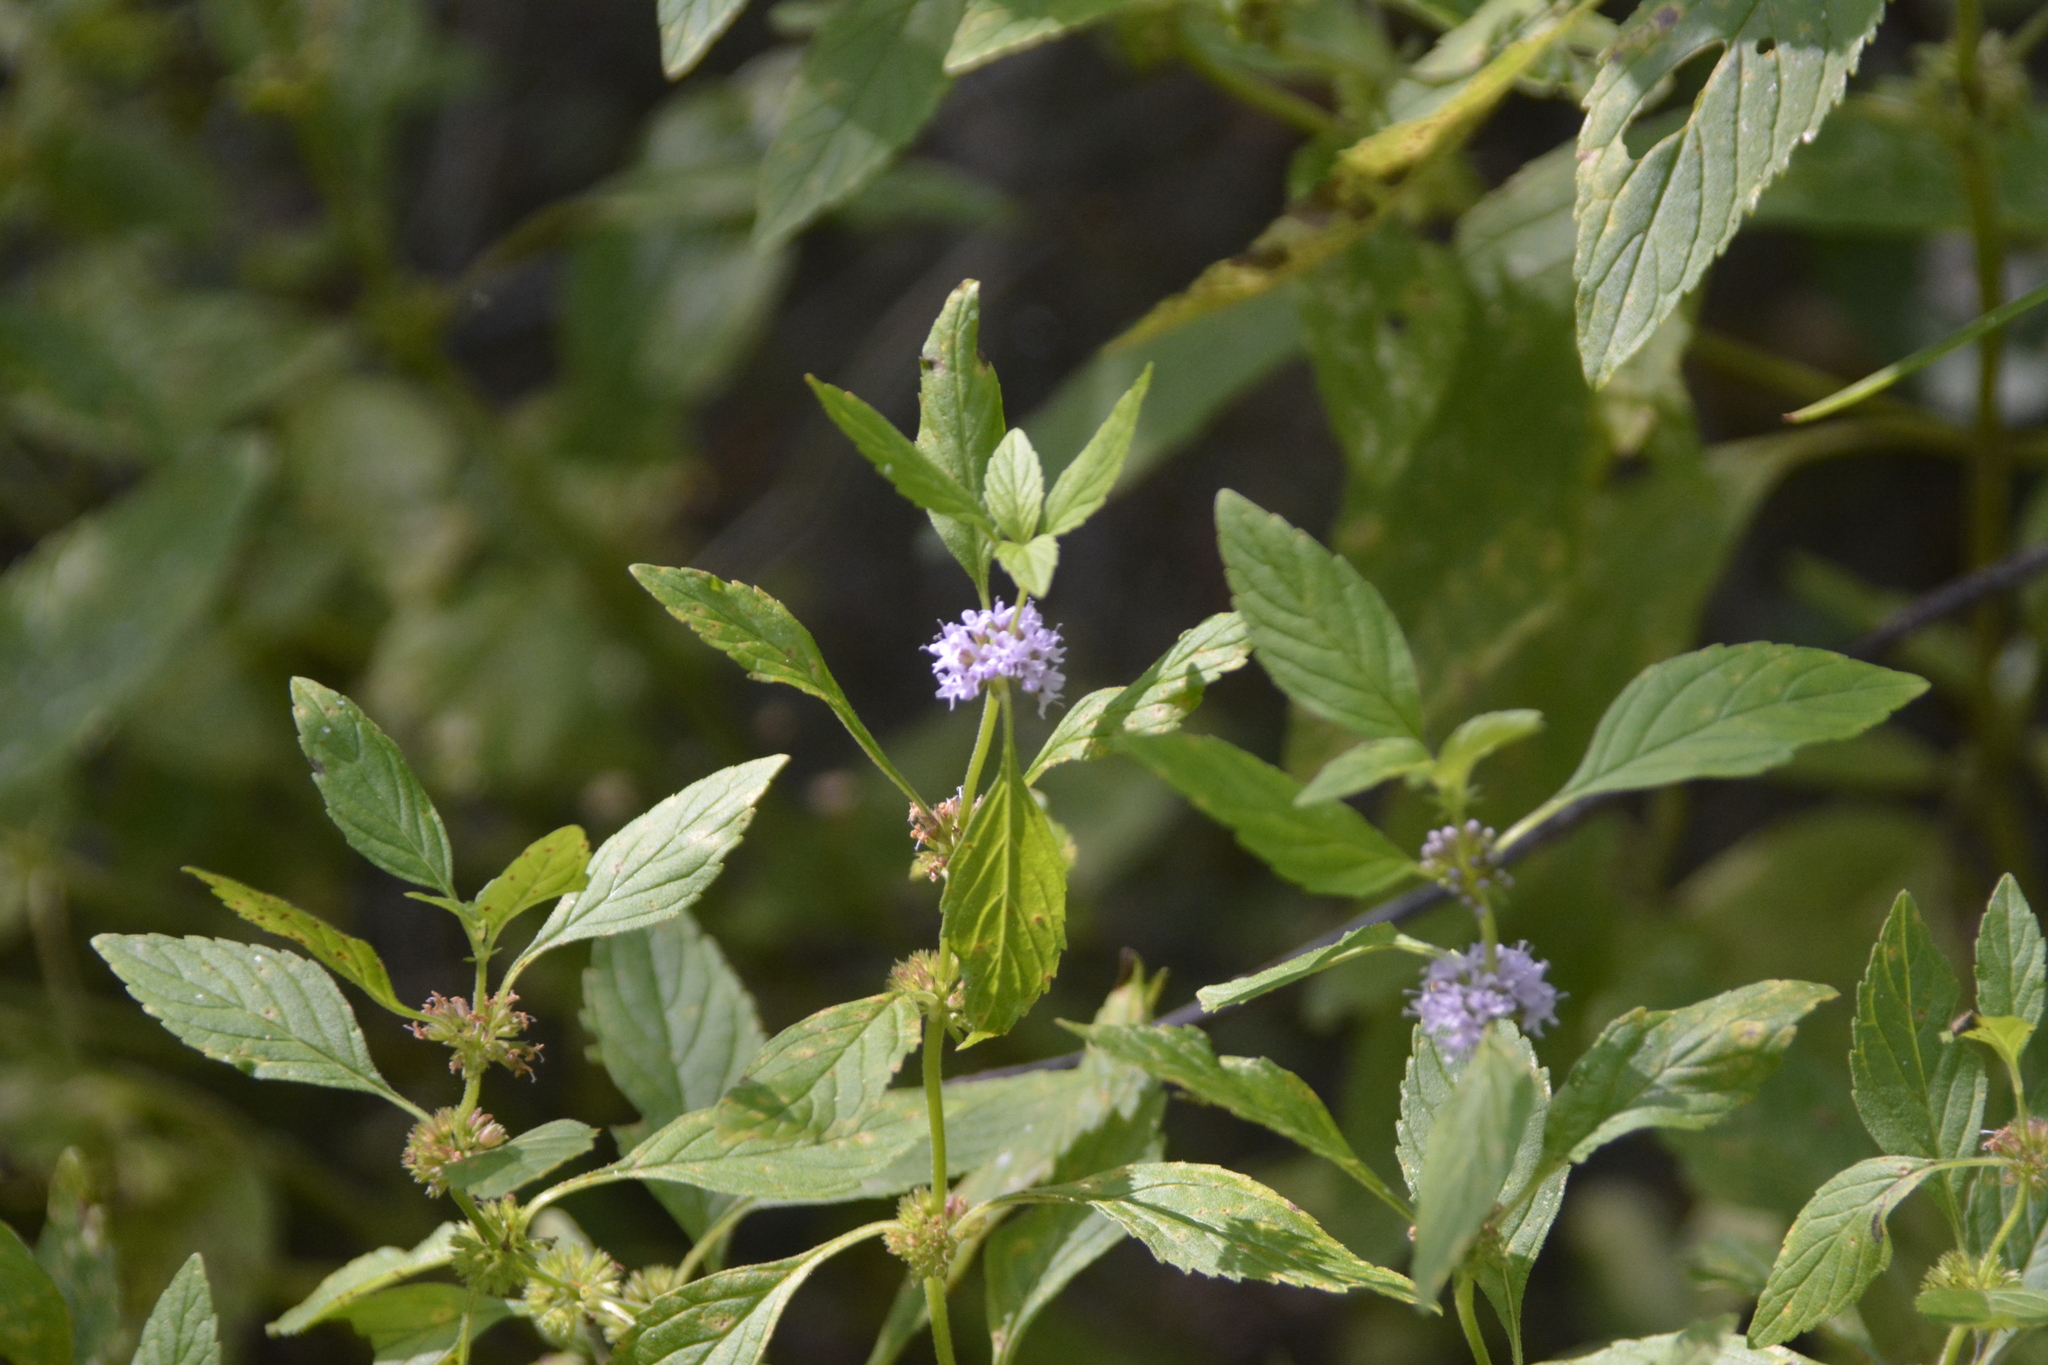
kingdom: Plantae
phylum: Tracheophyta
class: Magnoliopsida
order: Lamiales
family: Lamiaceae
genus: Mentha
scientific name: Mentha arvensis
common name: Corn mint
